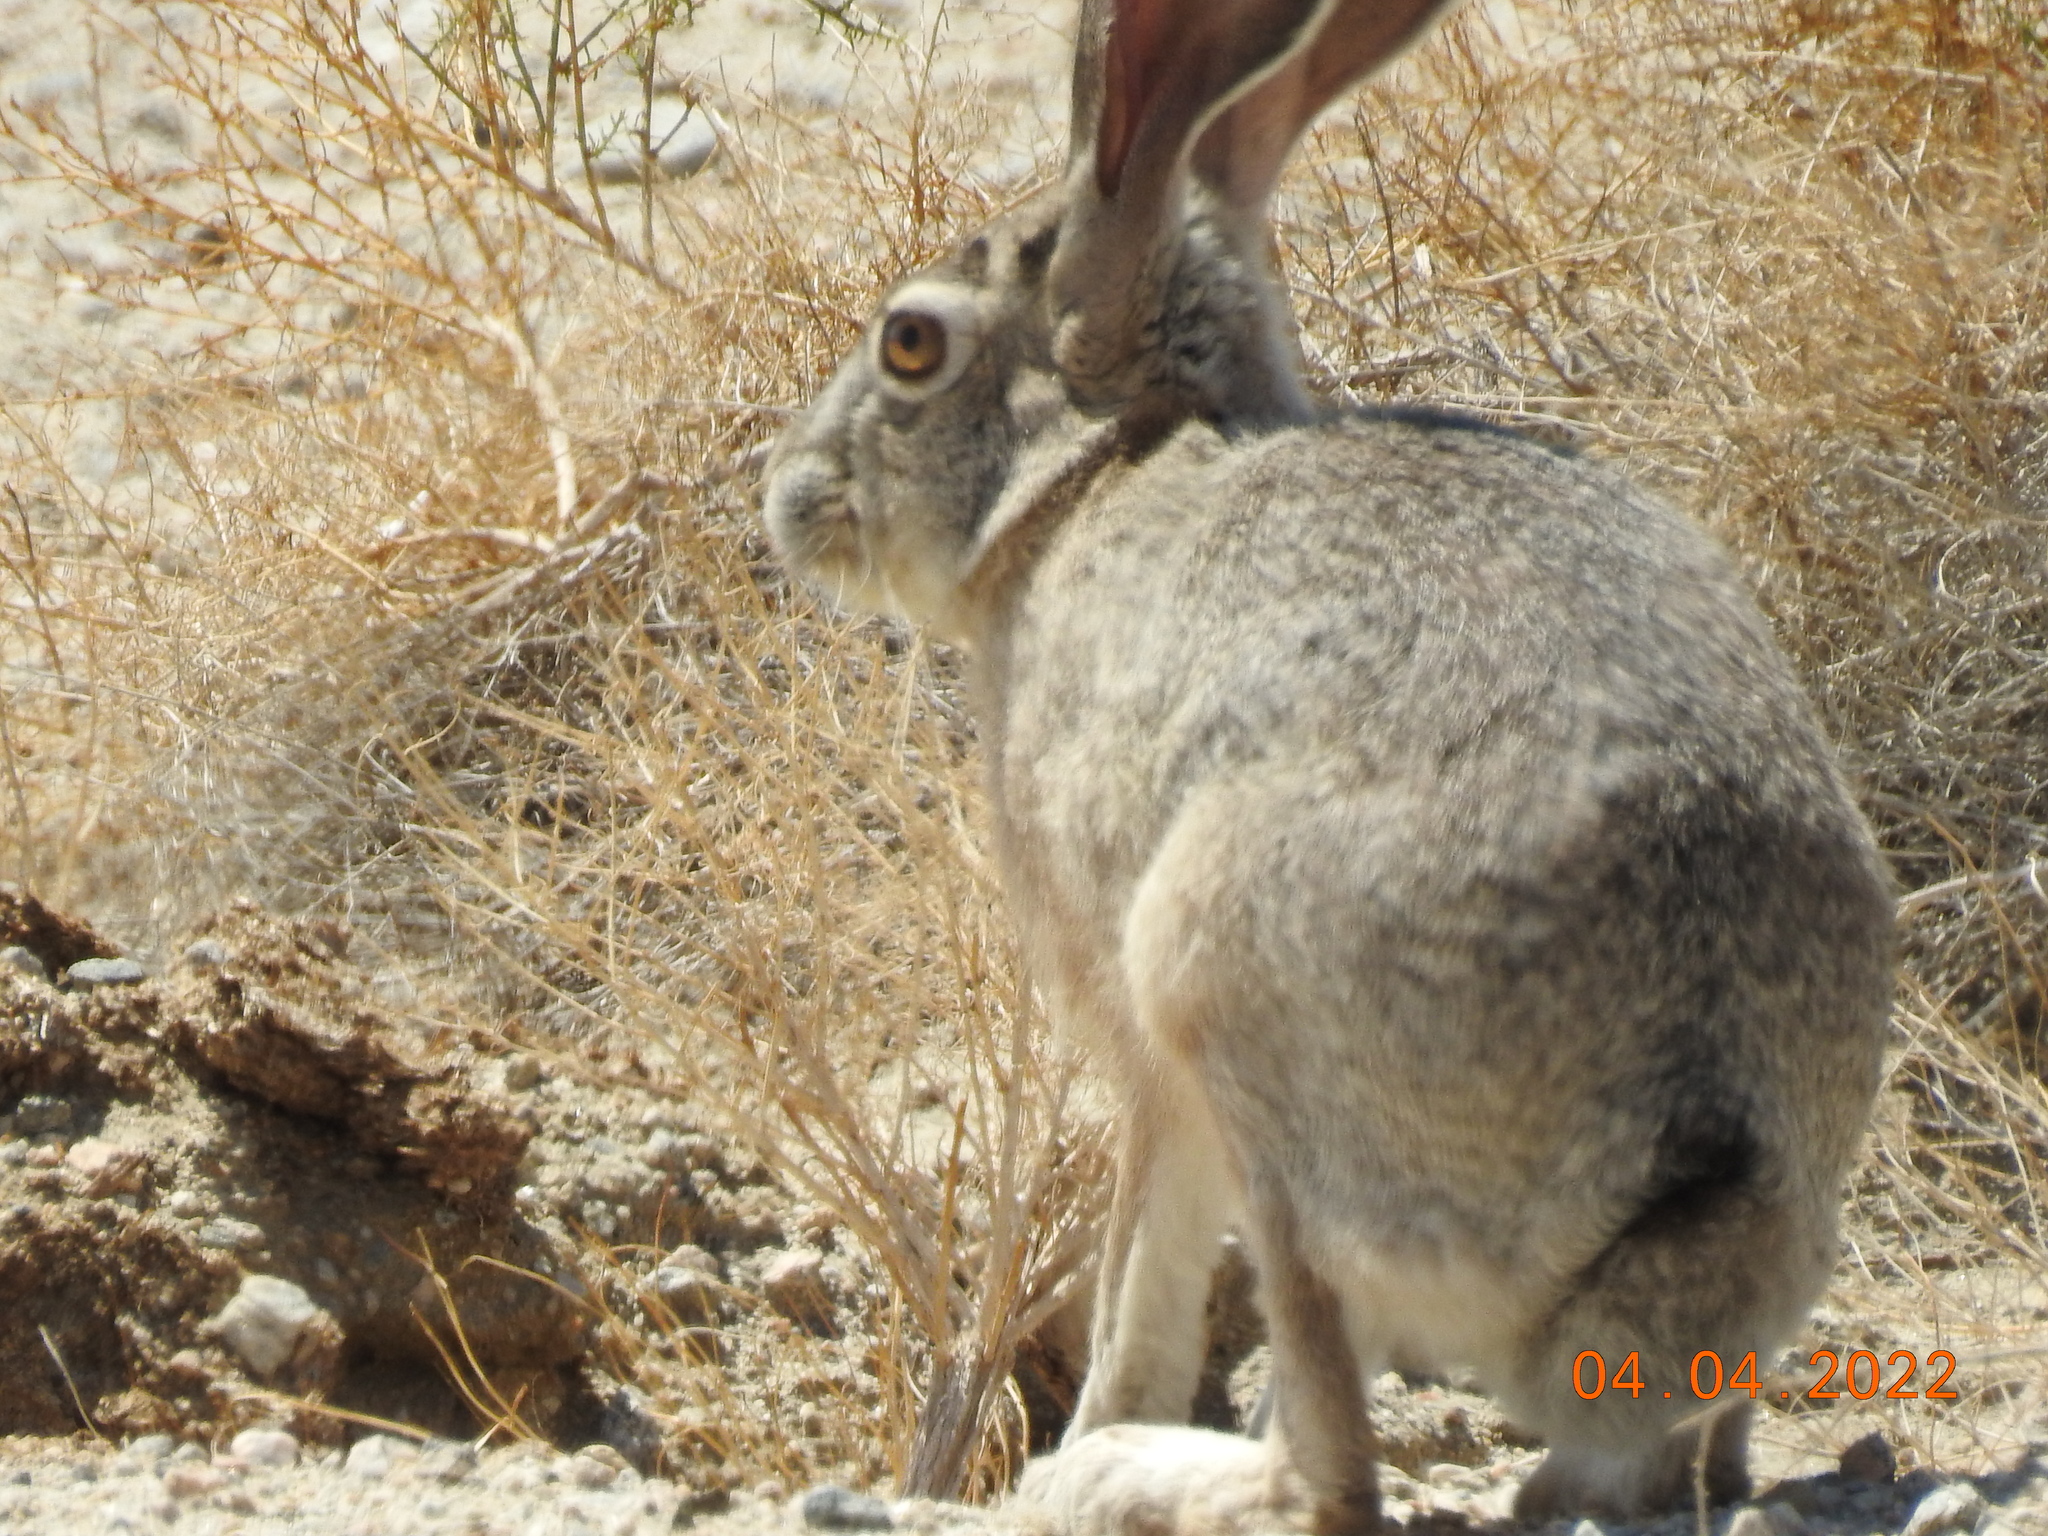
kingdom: Animalia
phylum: Chordata
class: Mammalia
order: Lagomorpha
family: Leporidae
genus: Lepus
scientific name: Lepus californicus
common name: Black-tailed jackrabbit
